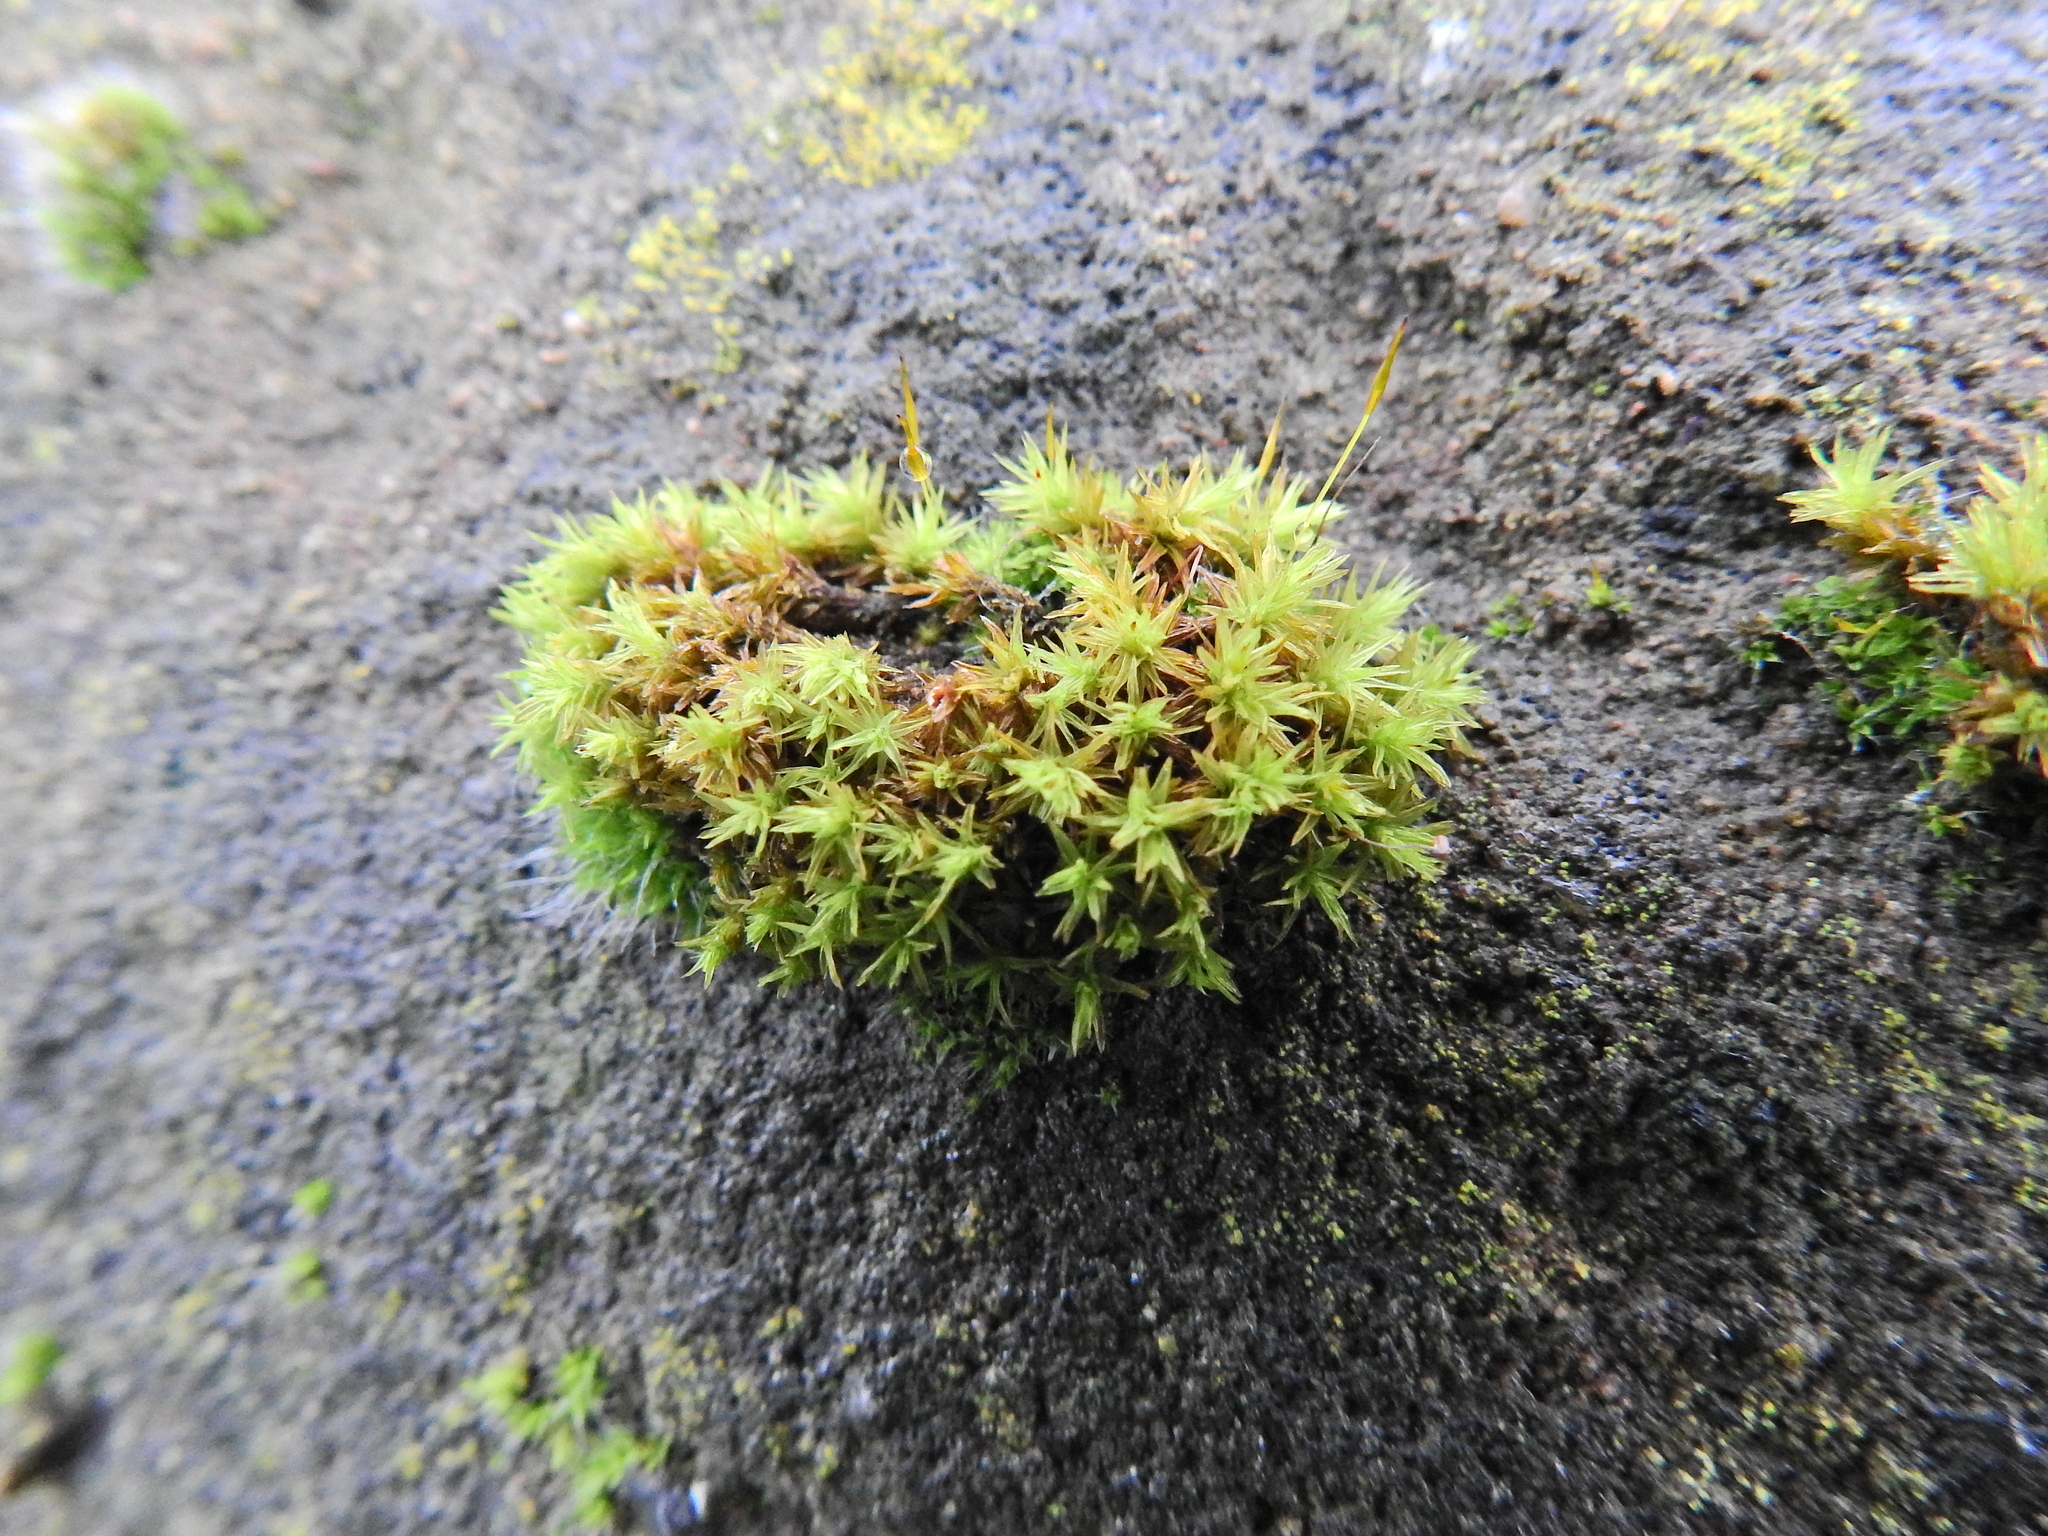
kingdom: Plantae
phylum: Bryophyta
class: Bryopsida
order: Orthotrichales
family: Orthotrichaceae
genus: Orthotrichum
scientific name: Orthotrichum anomalum
